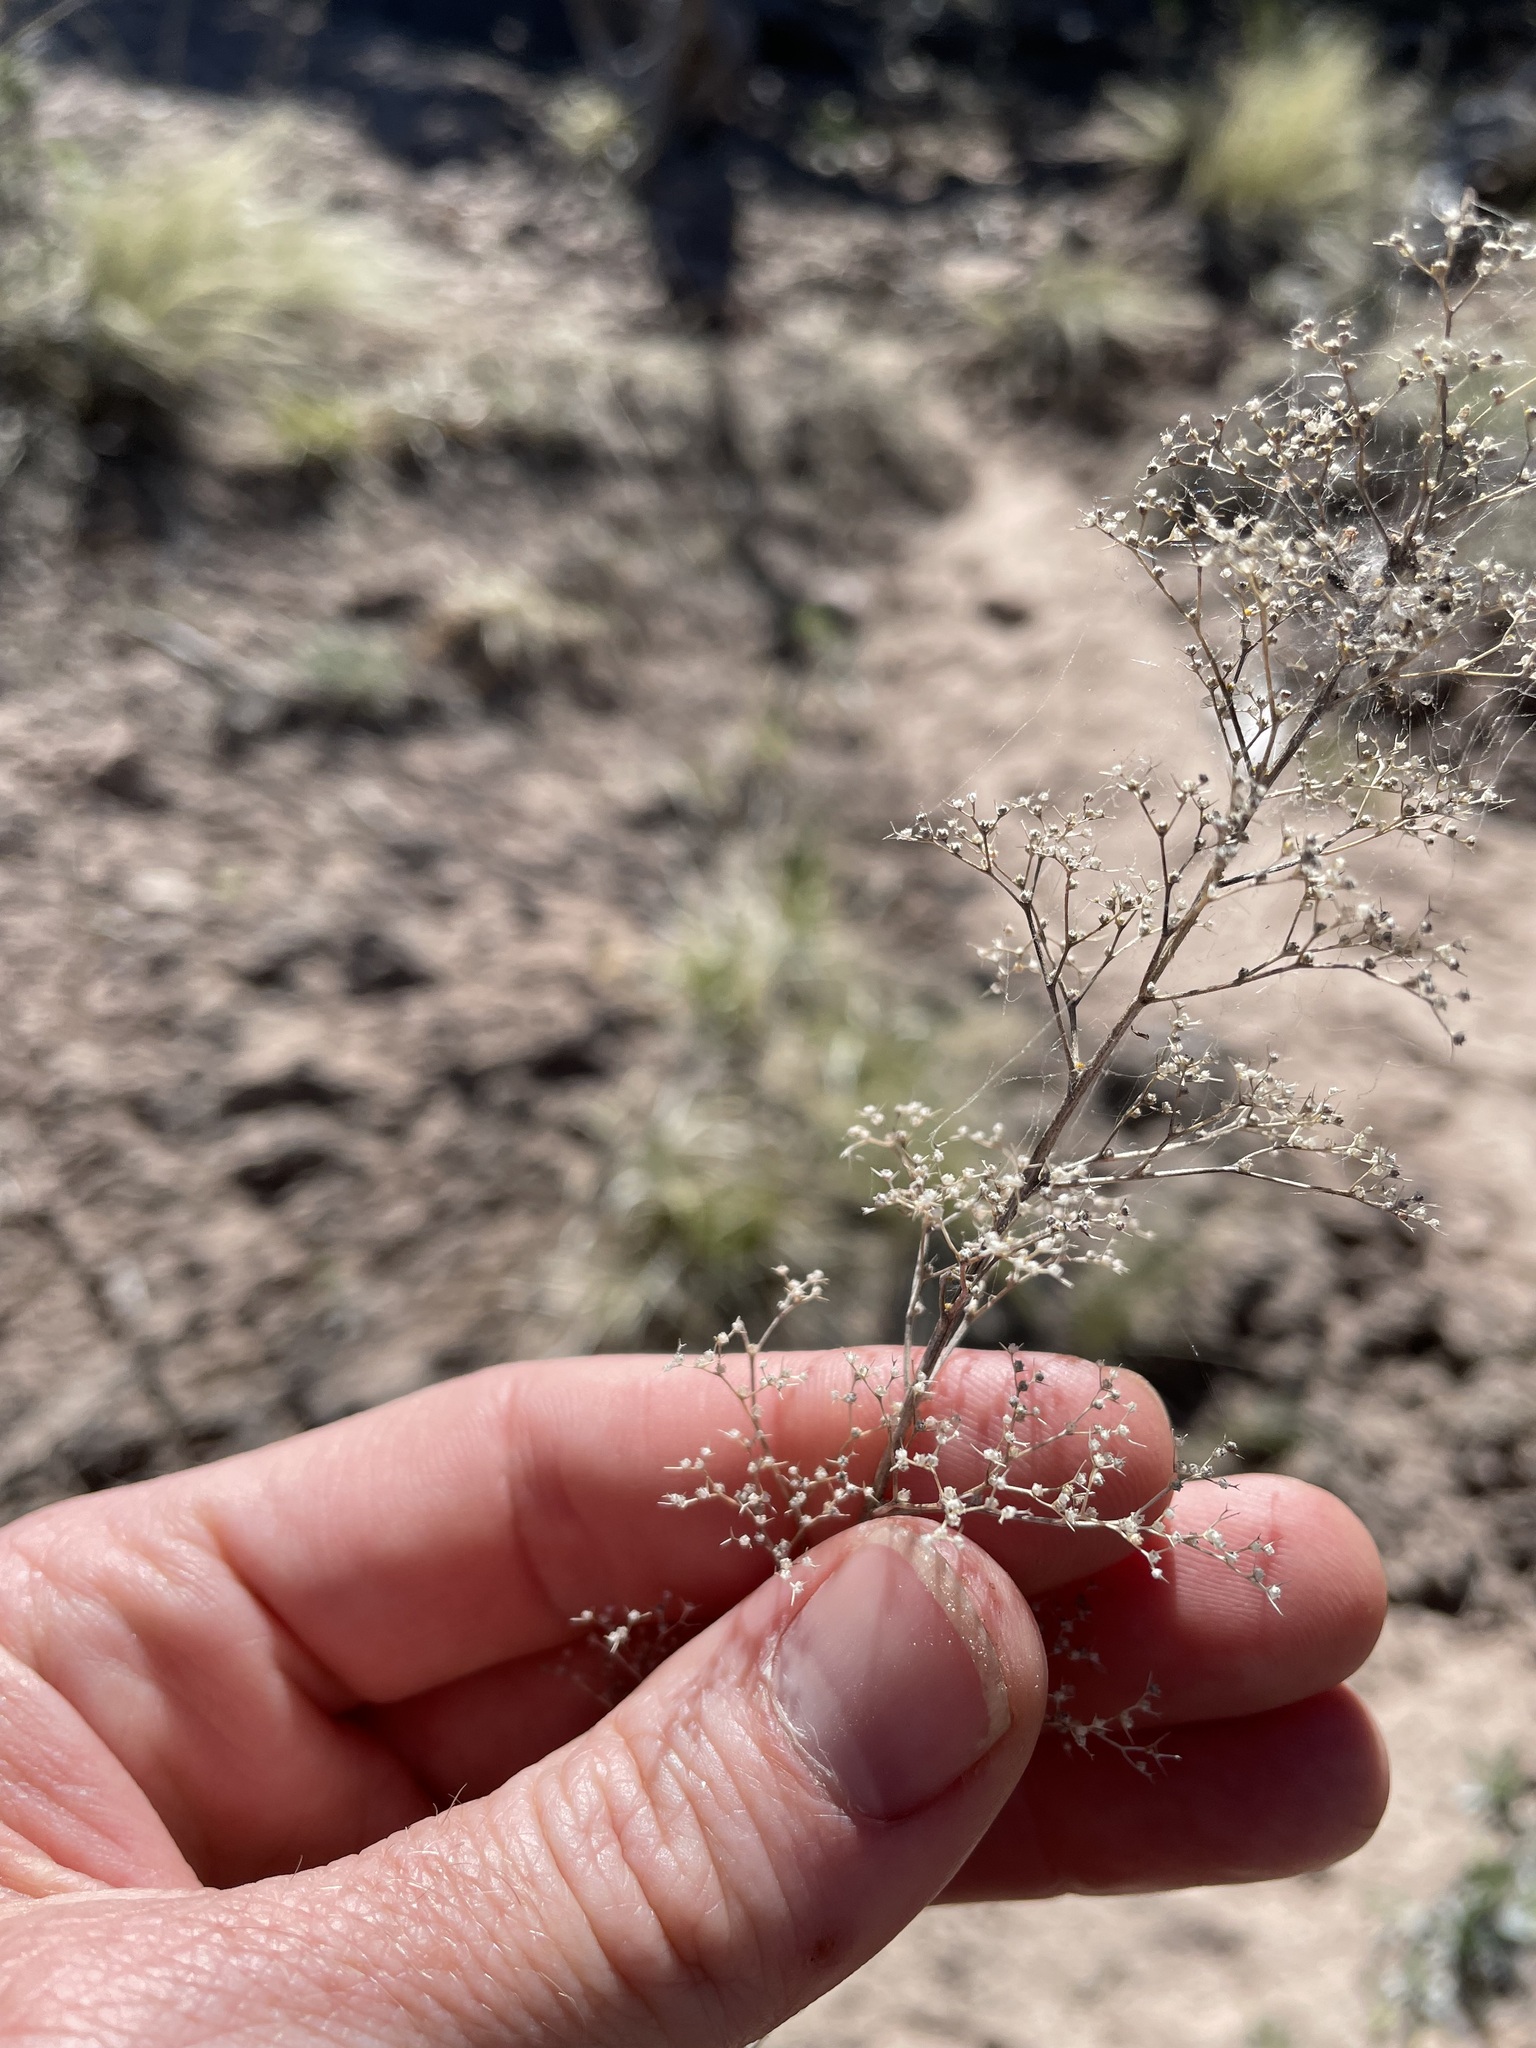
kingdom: Plantae
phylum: Tracheophyta
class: Magnoliopsida
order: Caryophyllales
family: Amaranthaceae
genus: Dysphania
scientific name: Dysphania incisa
